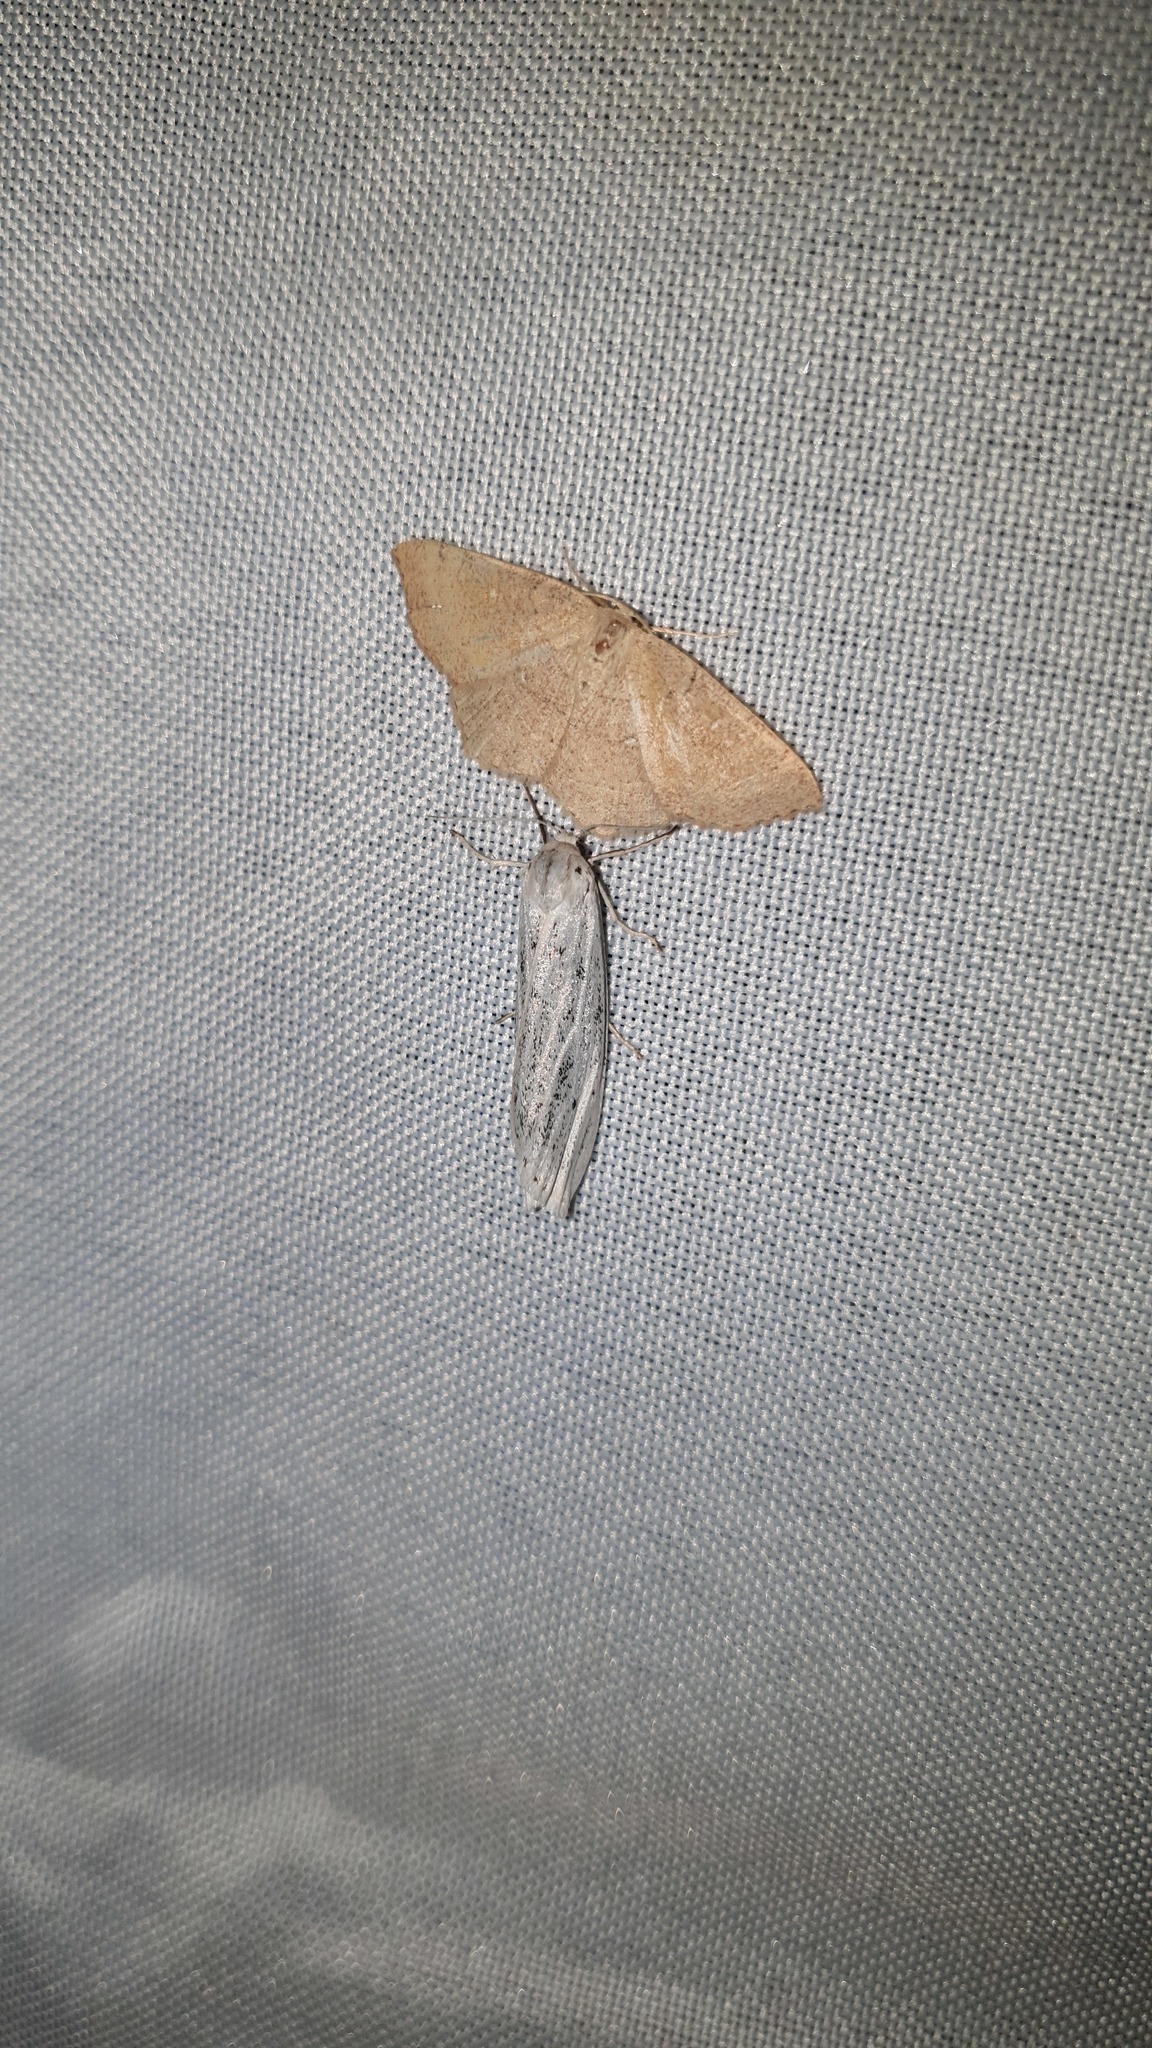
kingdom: Animalia
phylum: Arthropoda
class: Insecta
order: Lepidoptera
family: Geometridae
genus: Cyclophora
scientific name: Cyclophora puppillaria
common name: Blair's mocha
